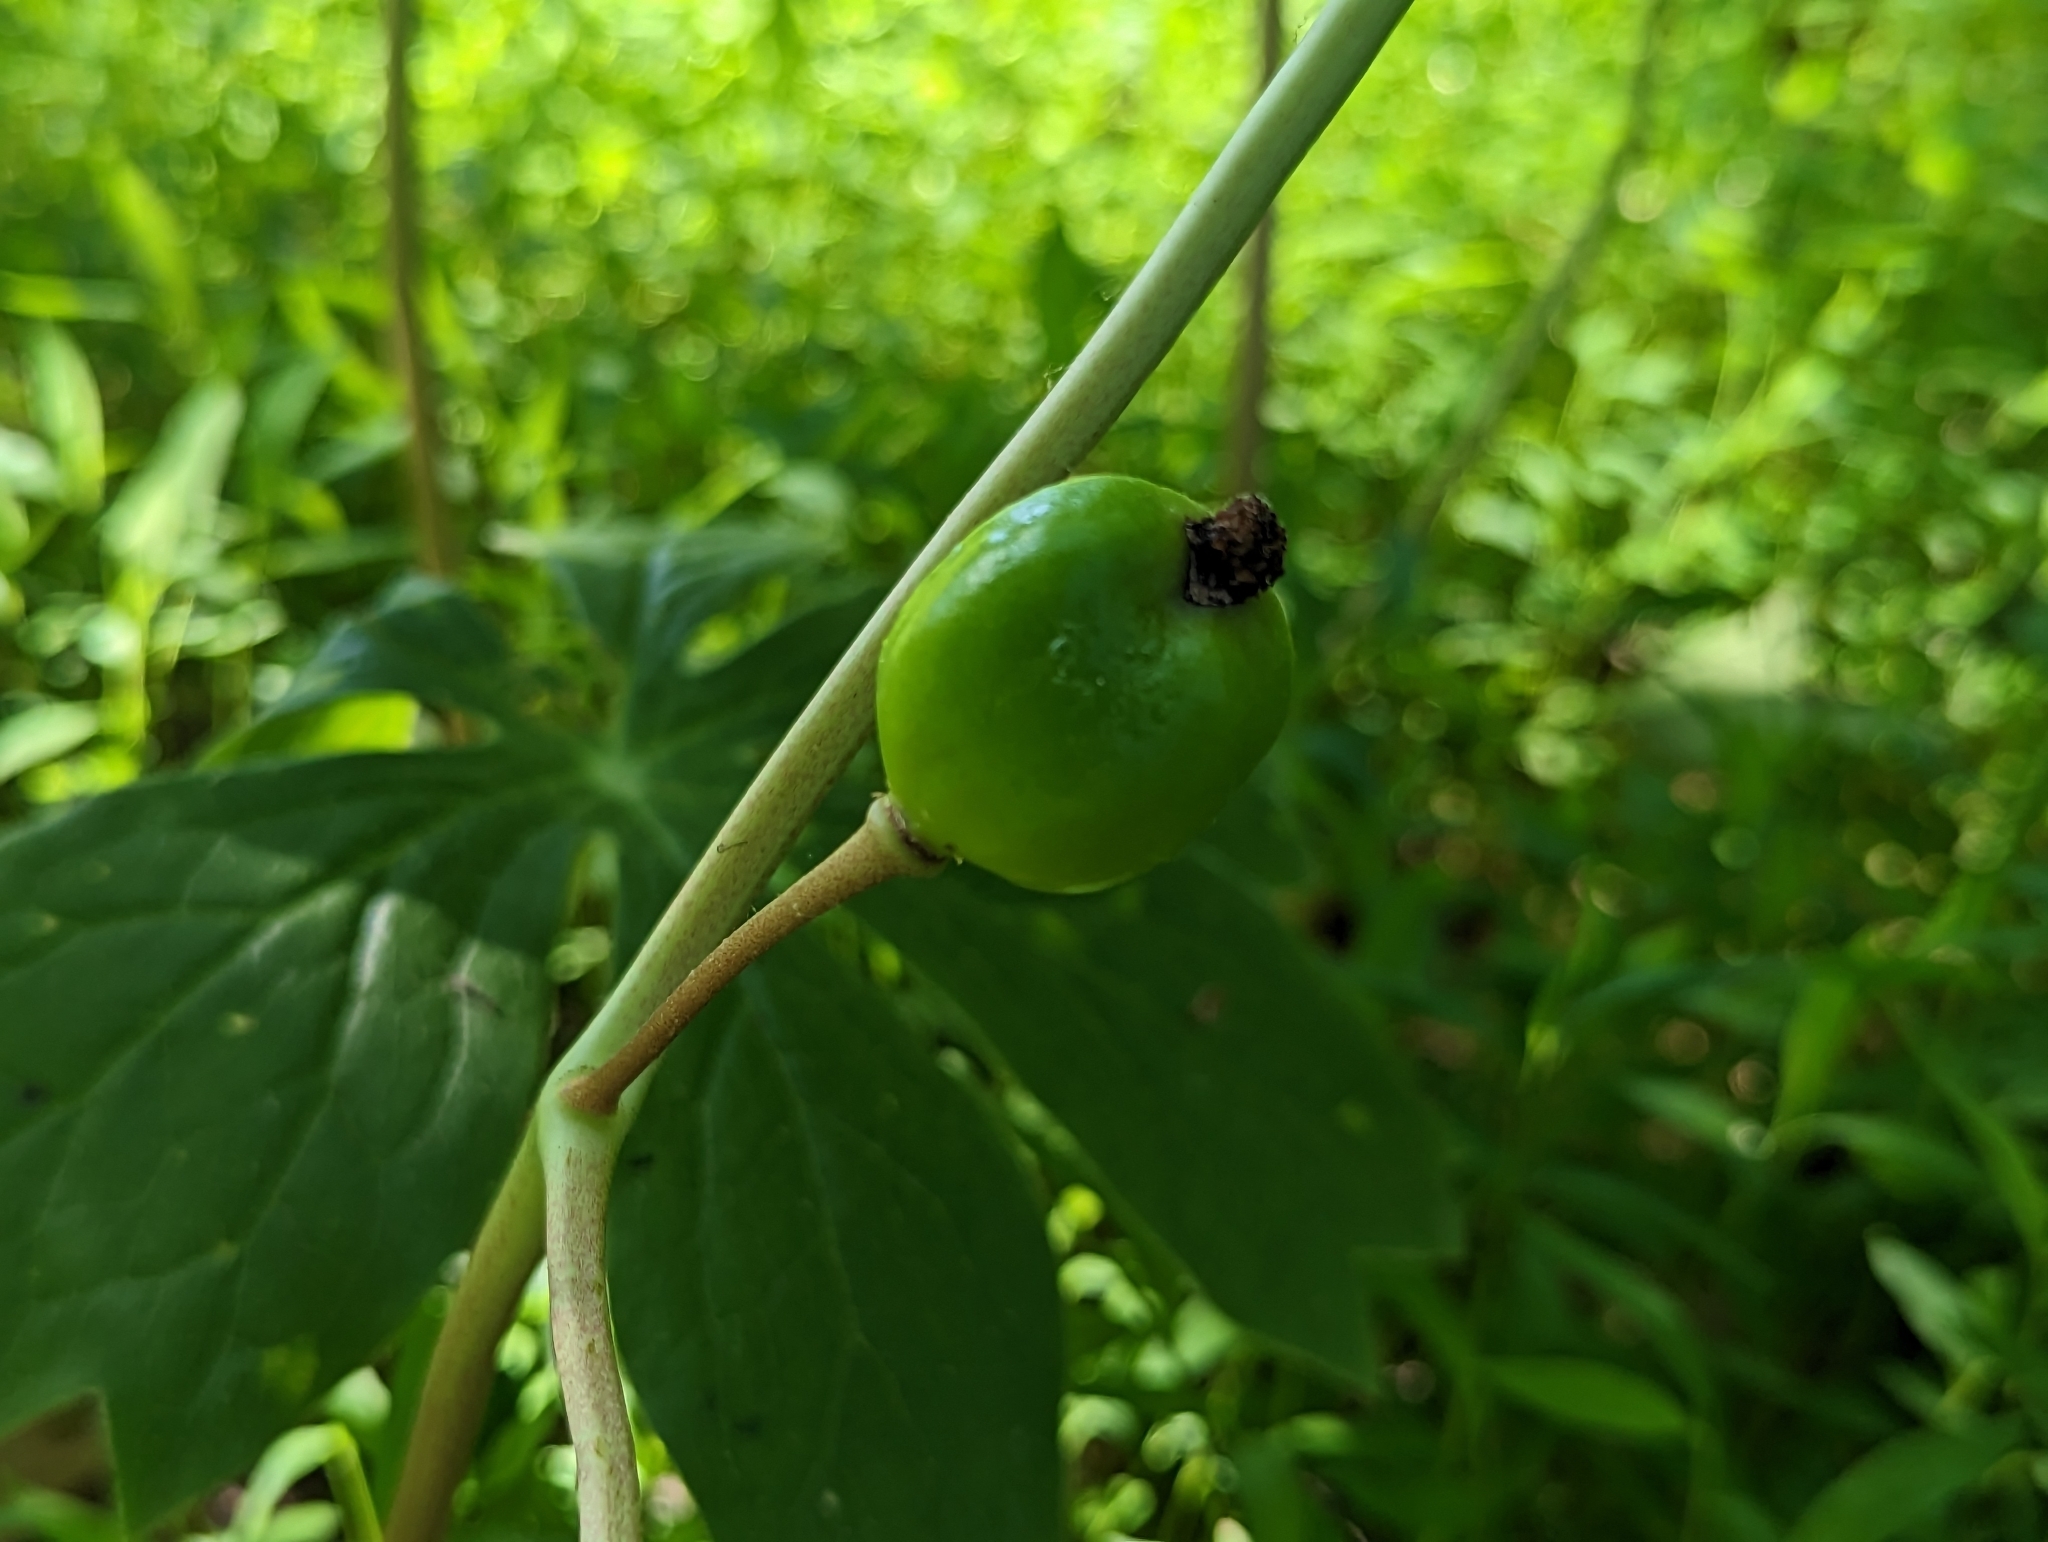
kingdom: Plantae
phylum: Tracheophyta
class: Magnoliopsida
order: Ranunculales
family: Berberidaceae
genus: Podophyllum
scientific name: Podophyllum peltatum
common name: Wild mandrake
